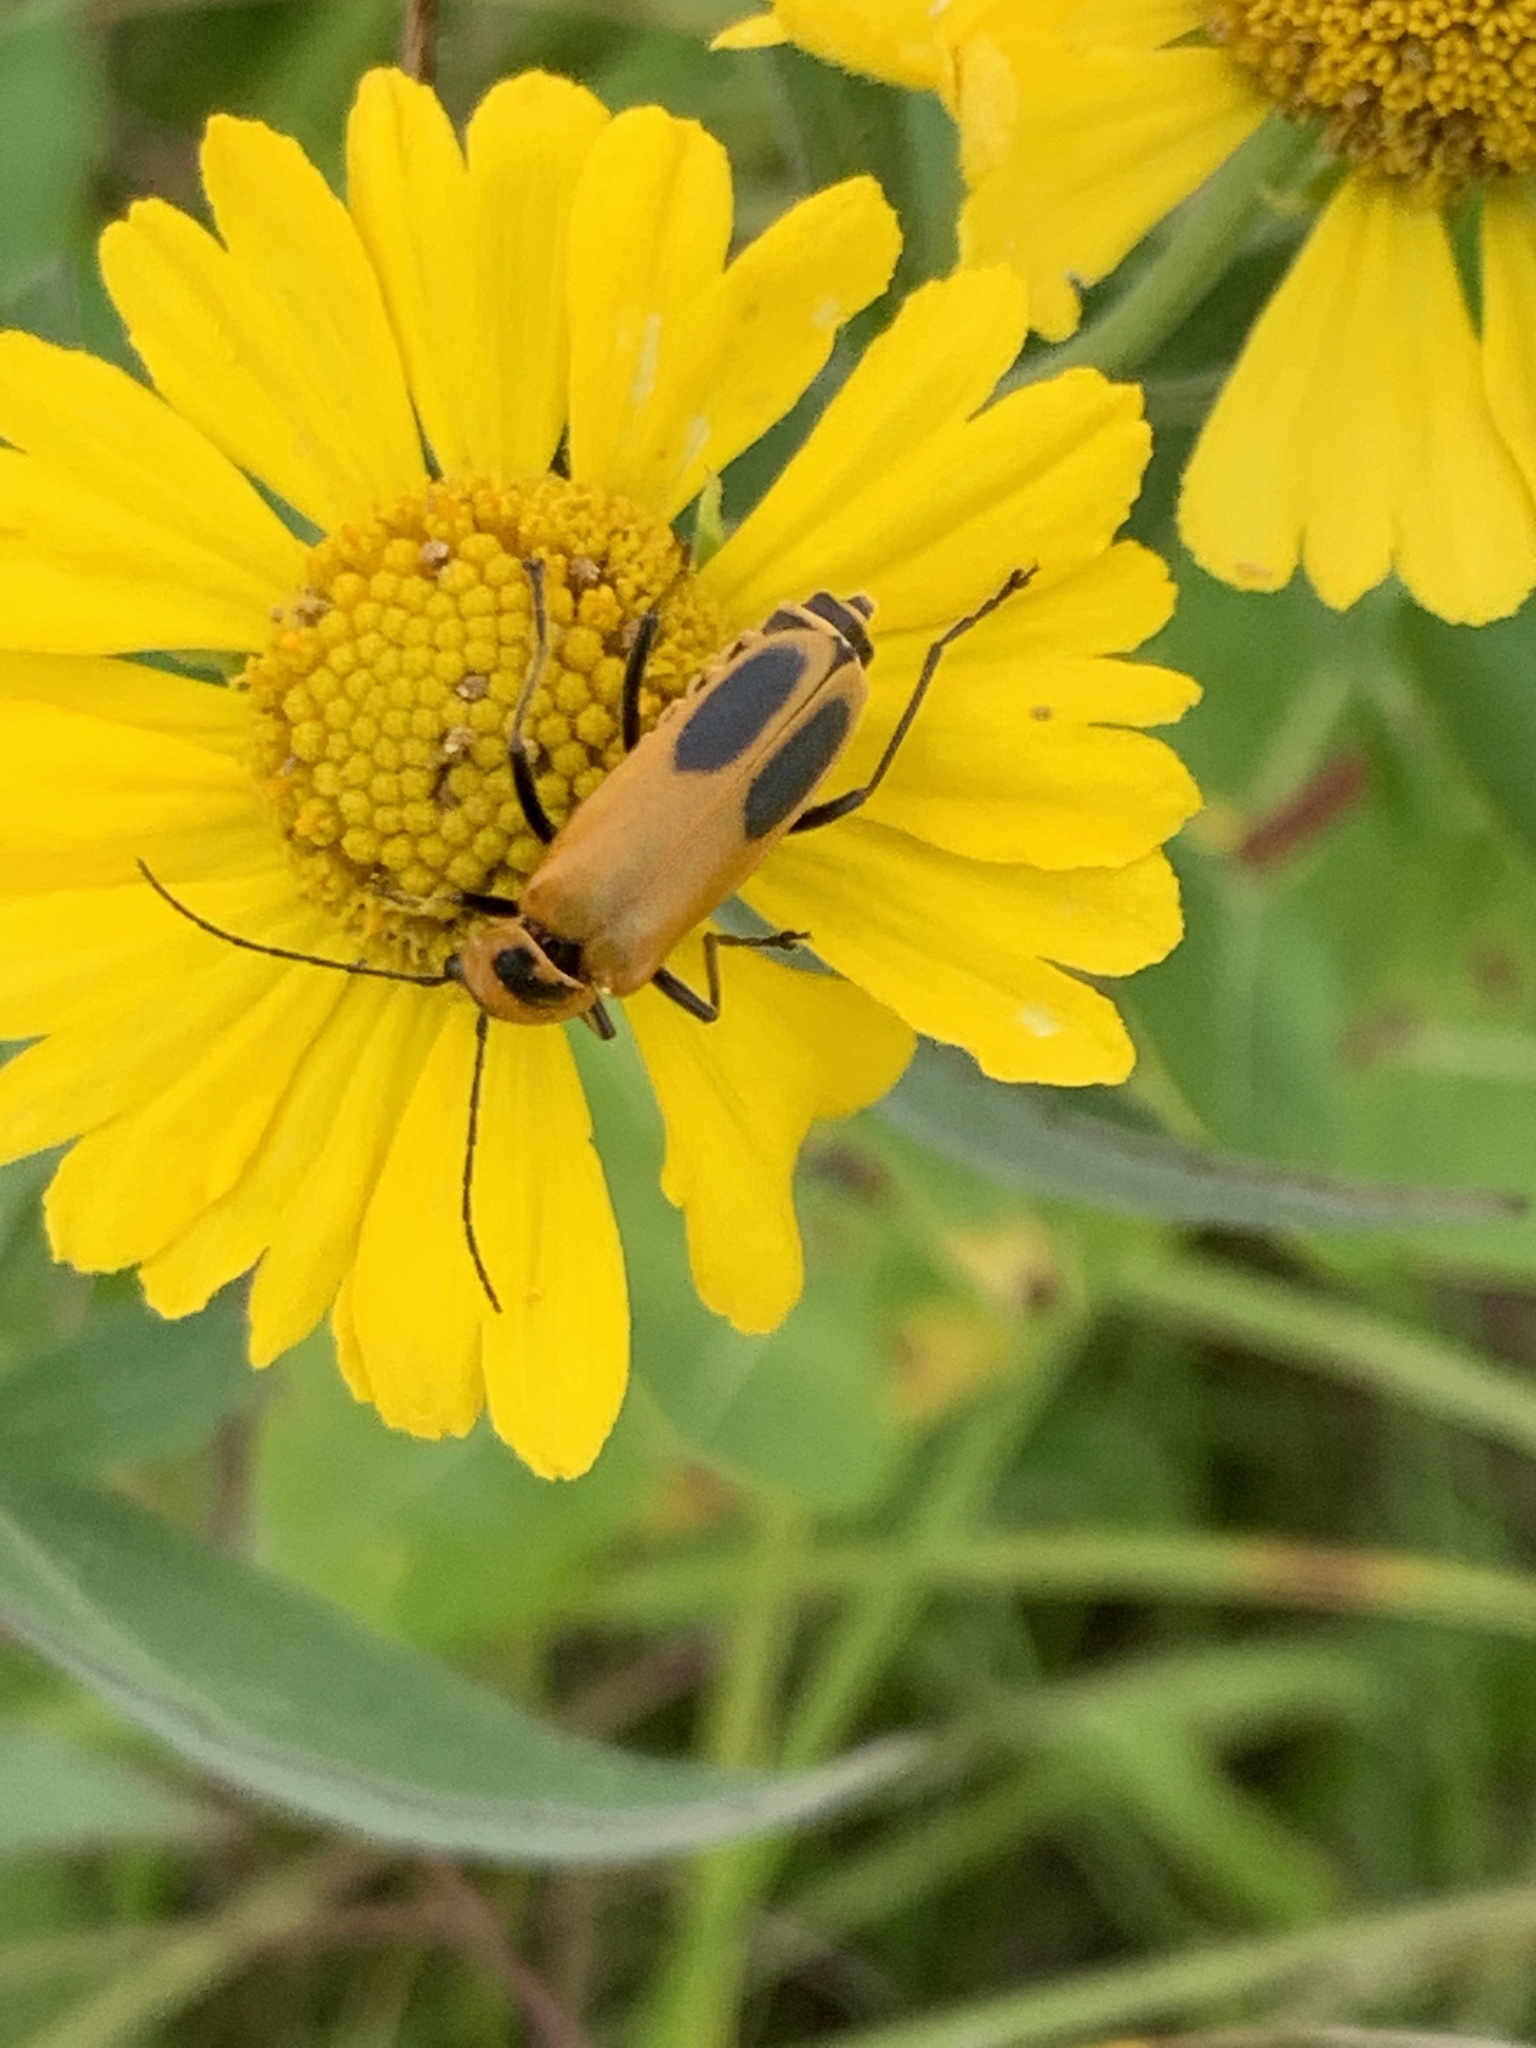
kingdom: Animalia
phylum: Arthropoda
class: Insecta
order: Coleoptera
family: Cantharidae
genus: Chauliognathus
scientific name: Chauliognathus pensylvanicus
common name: Goldenrod soldier beetle
